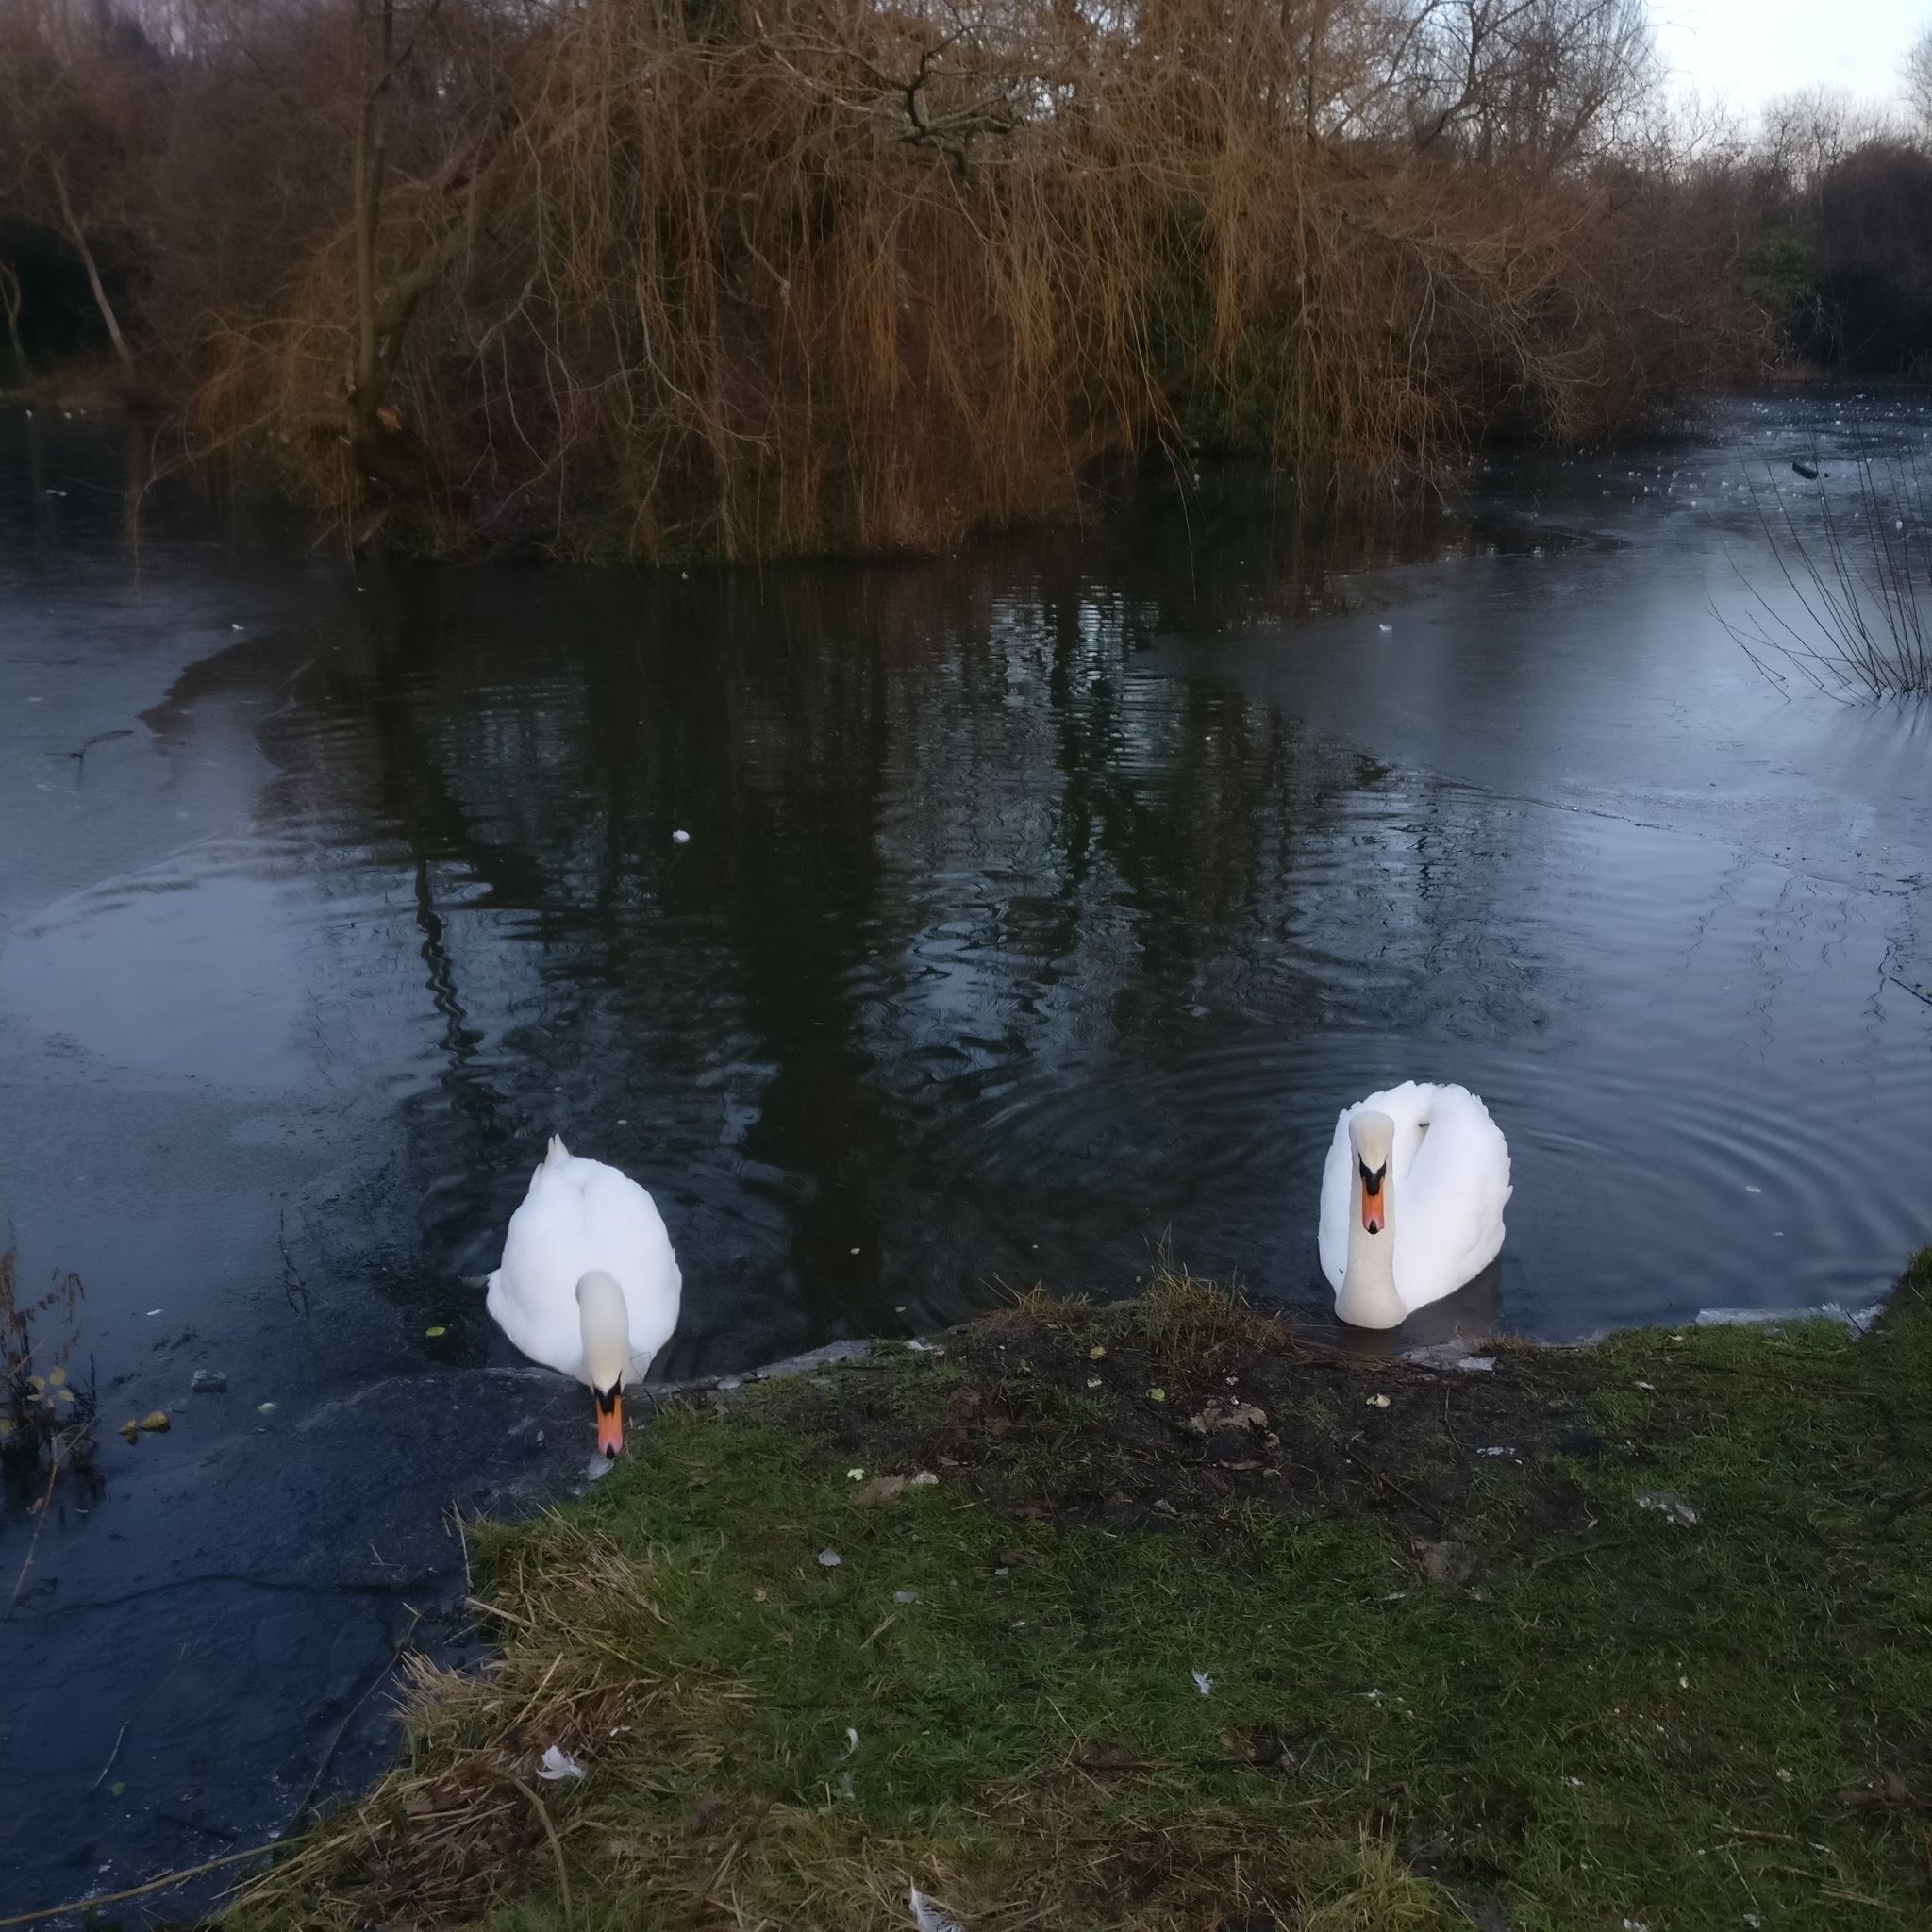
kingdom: Animalia
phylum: Chordata
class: Aves
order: Anseriformes
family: Anatidae
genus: Cygnus
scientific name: Cygnus olor
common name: Mute swan
